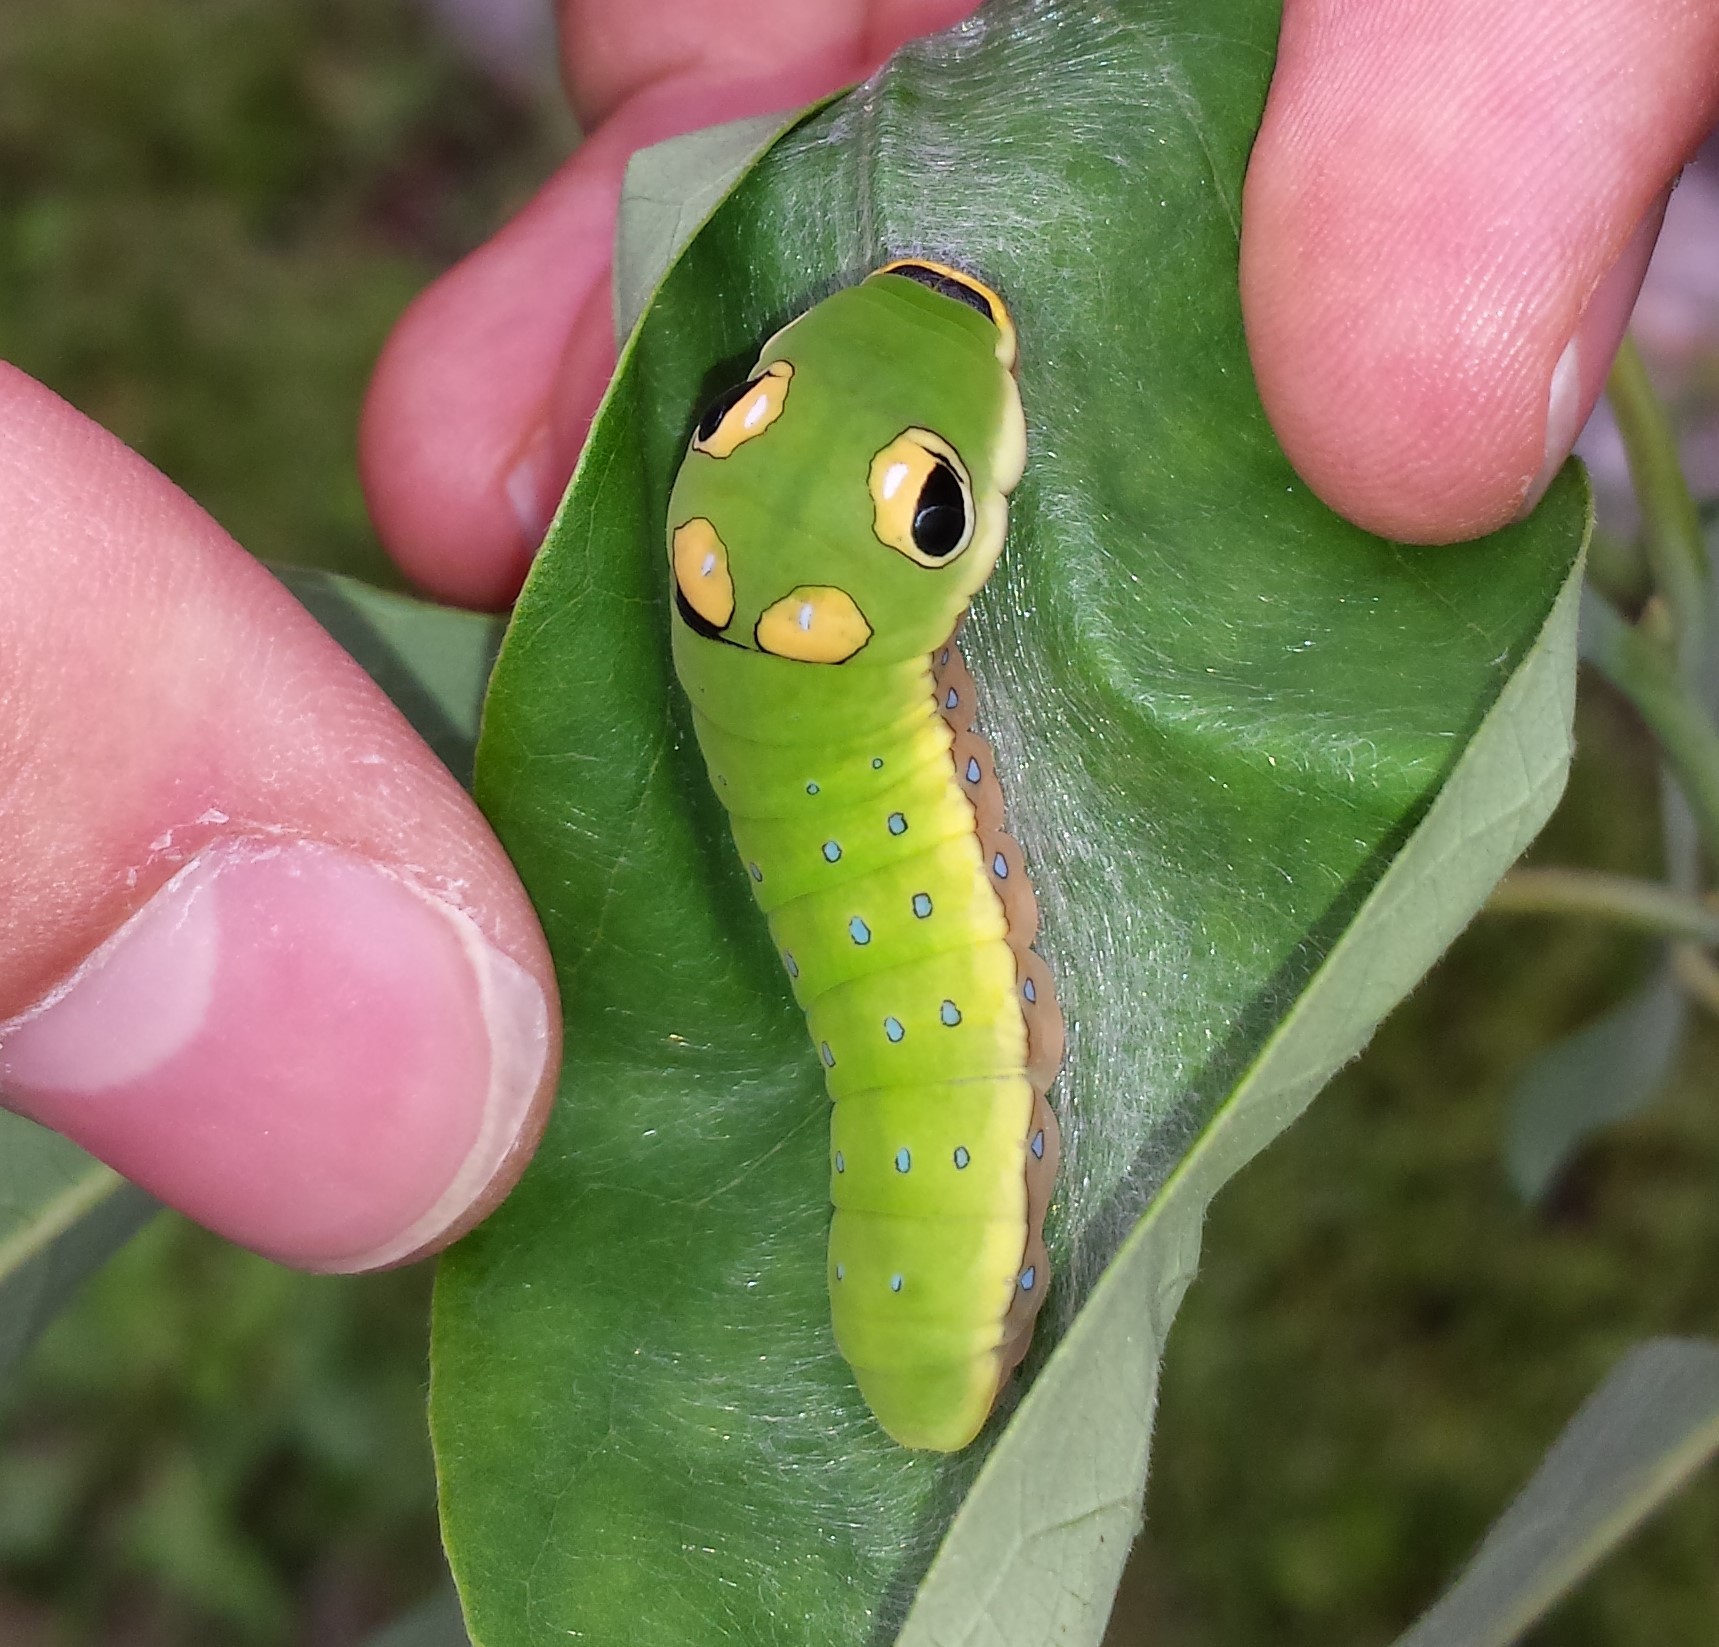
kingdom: Animalia
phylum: Arthropoda
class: Insecta
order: Lepidoptera
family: Papilionidae
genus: Papilio
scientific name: Papilio troilus
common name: Spicebush swallowtail
